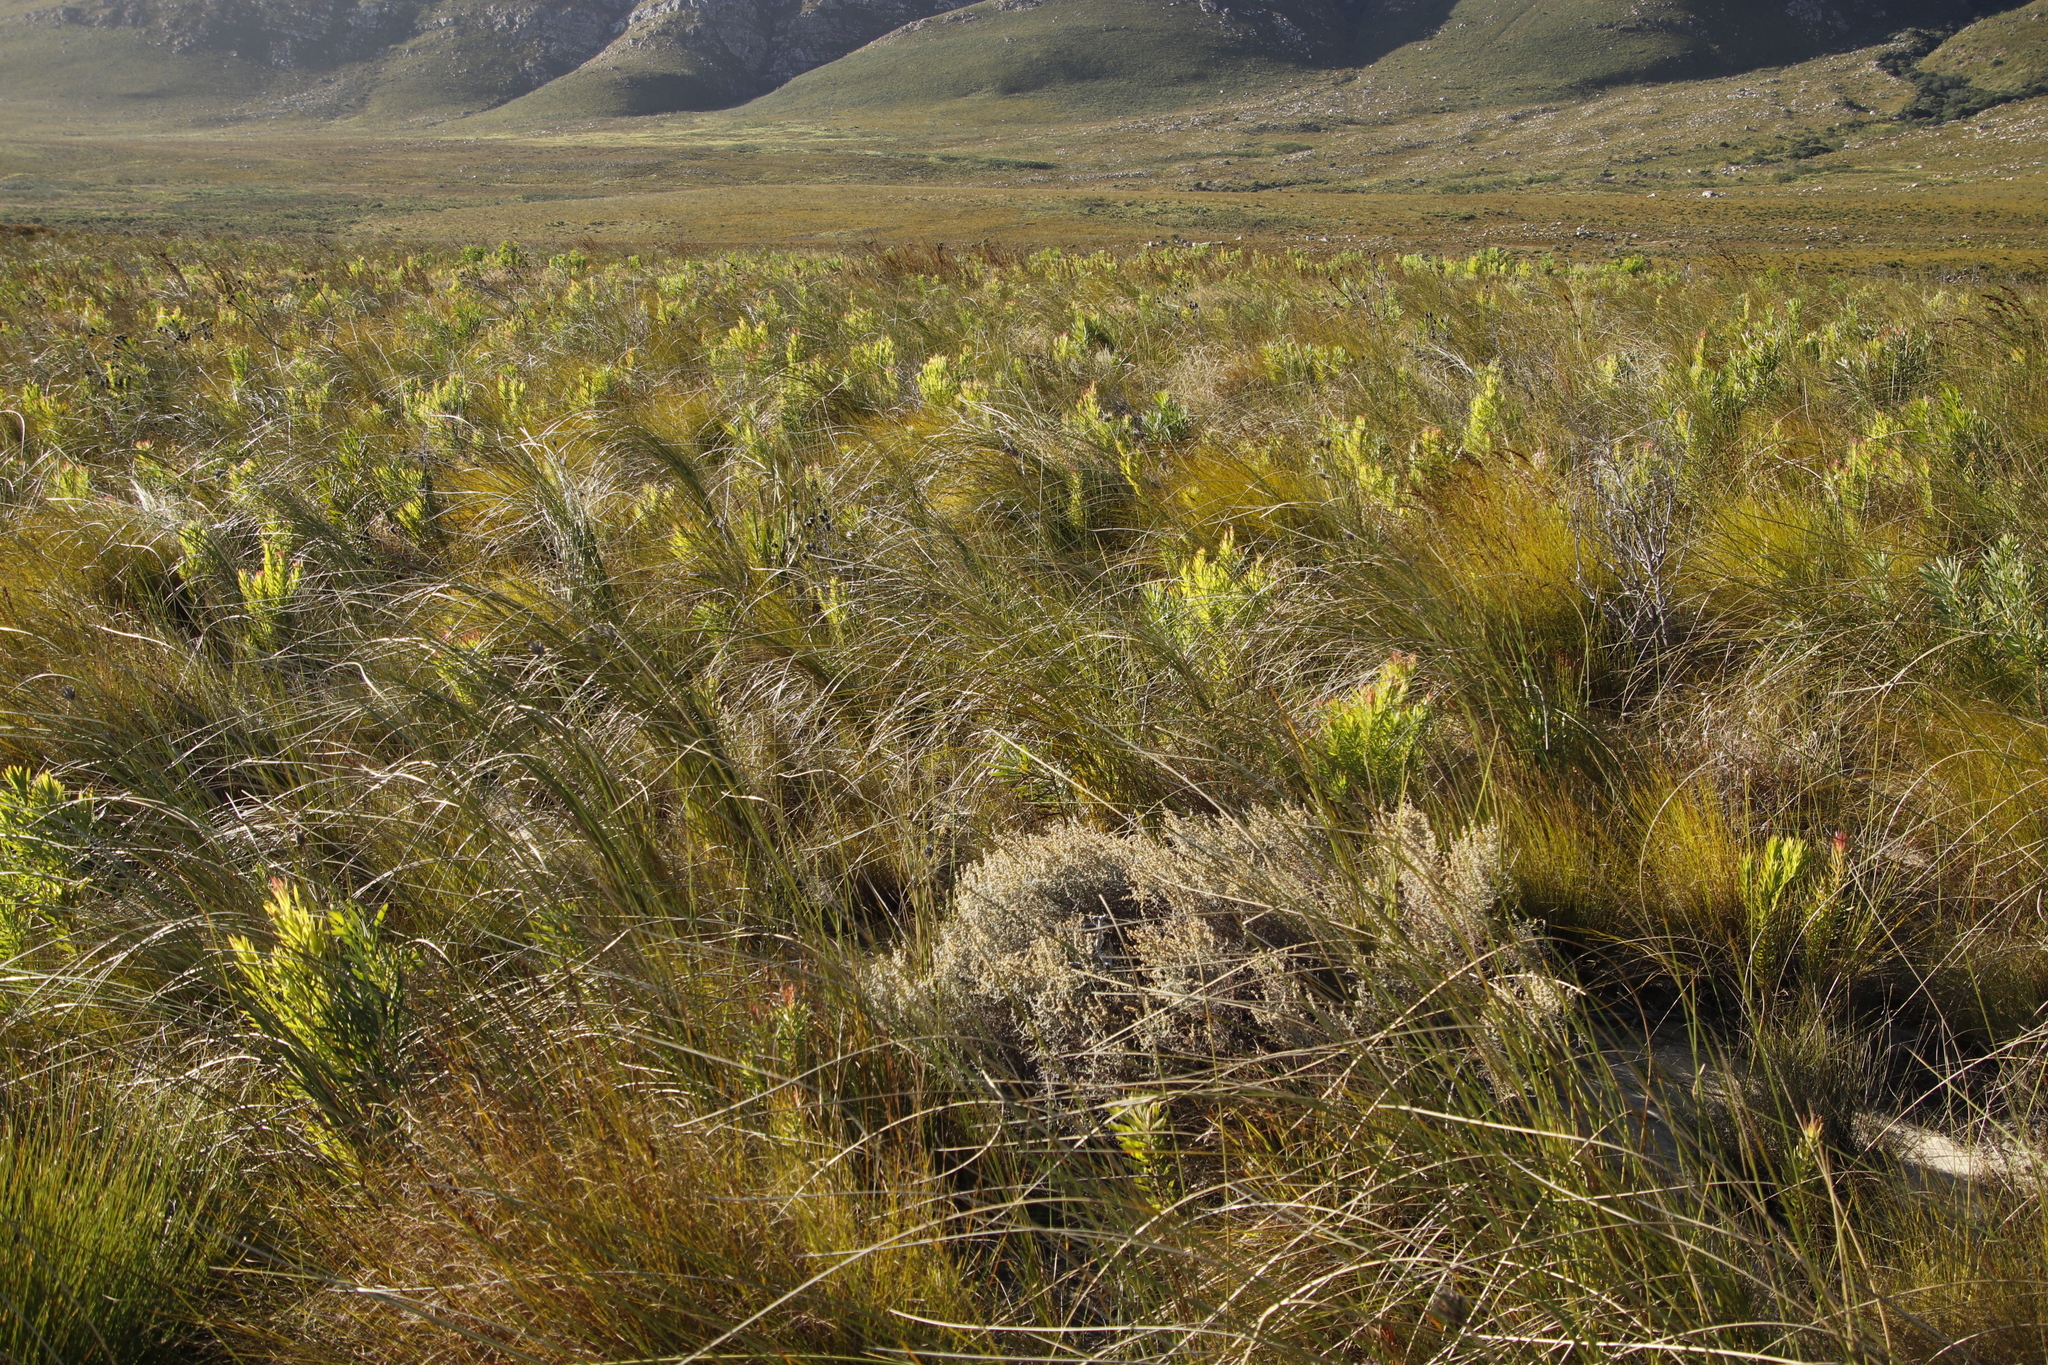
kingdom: Plantae
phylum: Tracheophyta
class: Magnoliopsida
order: Proteales
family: Proteaceae
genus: Leucadendron
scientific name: Leucadendron xanthoconus
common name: Sickle-leaf conebush
